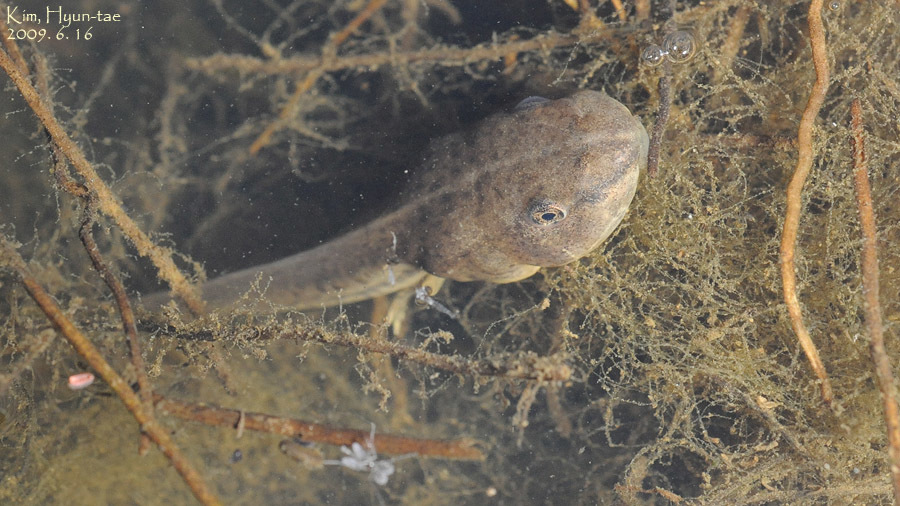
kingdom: Animalia
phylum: Chordata
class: Amphibia
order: Anura
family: Ranidae
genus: Pelophylax
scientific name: Pelophylax nigromaculatus
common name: Black-spotted pond frog
